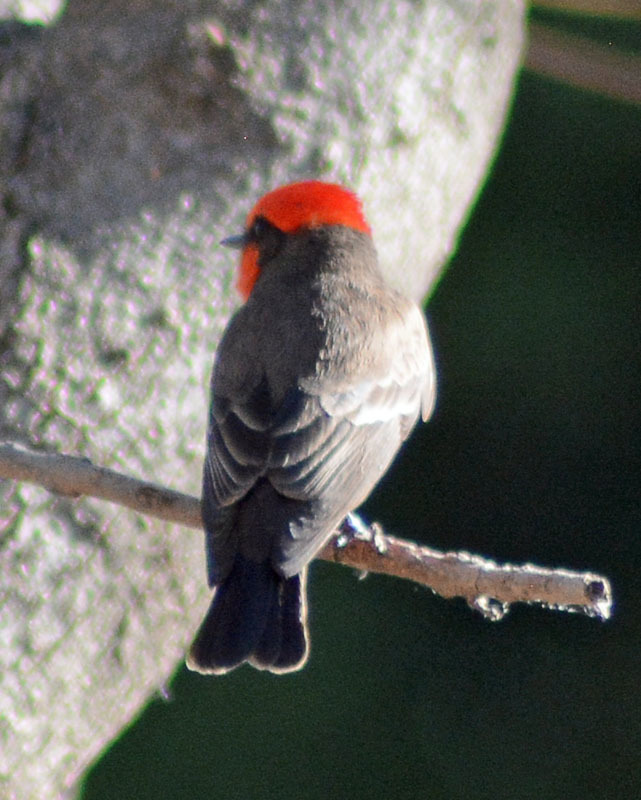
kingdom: Animalia
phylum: Chordata
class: Aves
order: Passeriformes
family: Tyrannidae
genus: Pyrocephalus
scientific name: Pyrocephalus rubinus
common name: Vermilion flycatcher
